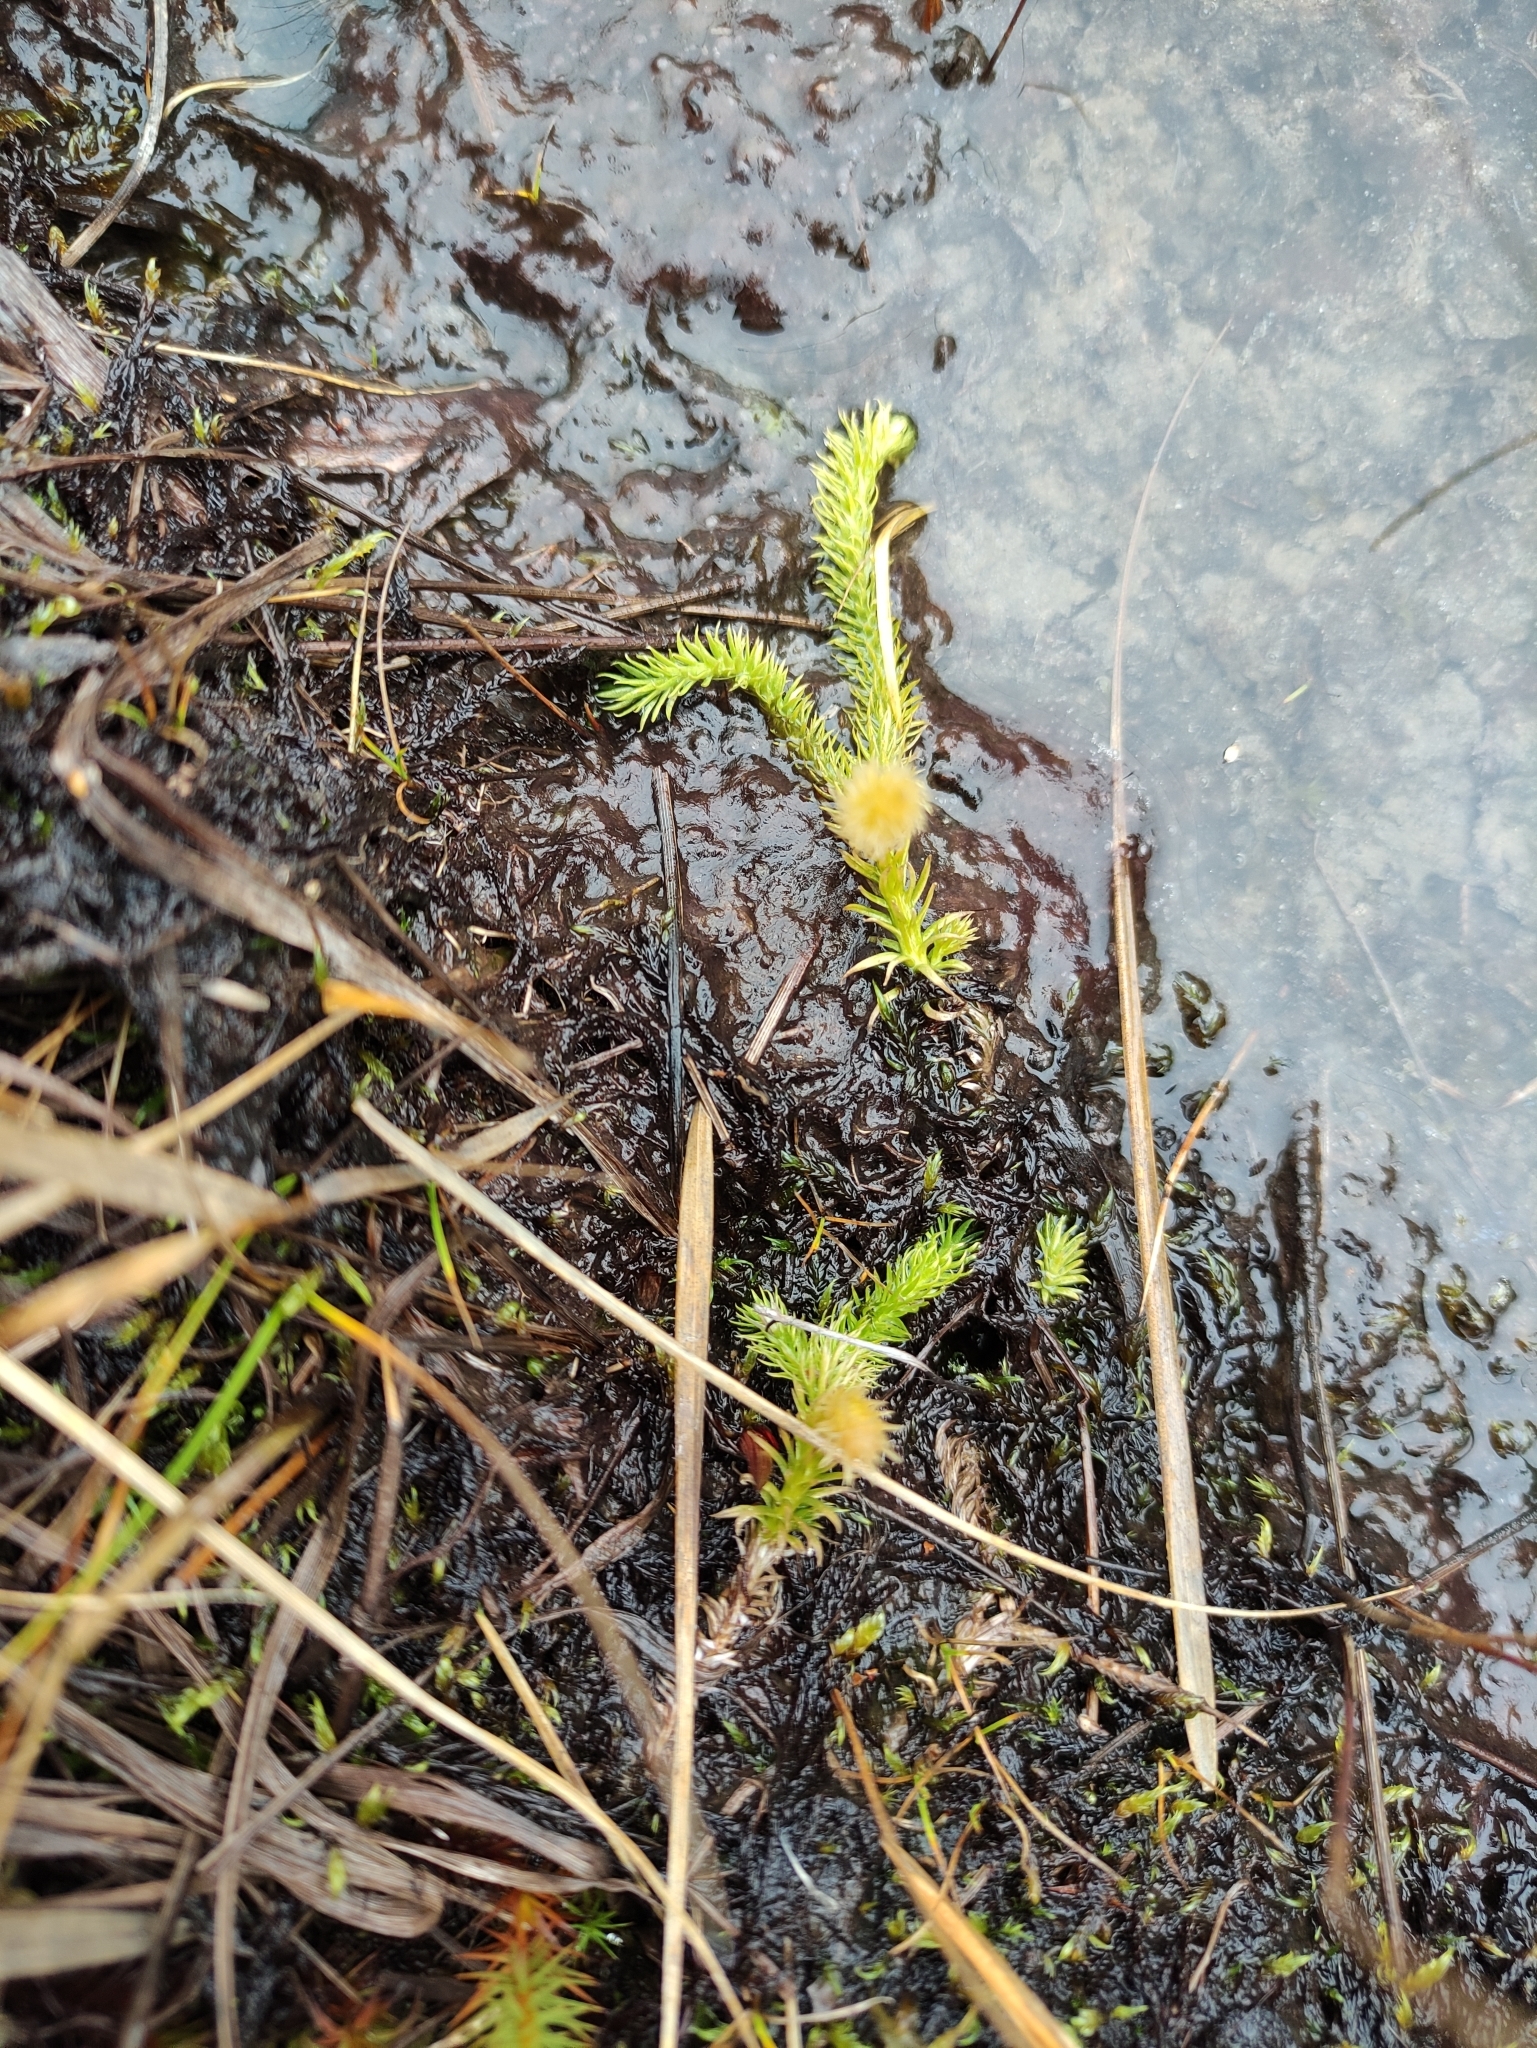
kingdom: Plantae
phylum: Tracheophyta
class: Lycopodiopsida
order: Lycopodiales
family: Lycopodiaceae
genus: Lycopodiella
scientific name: Lycopodiella inundata
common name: Marsh clubmoss
